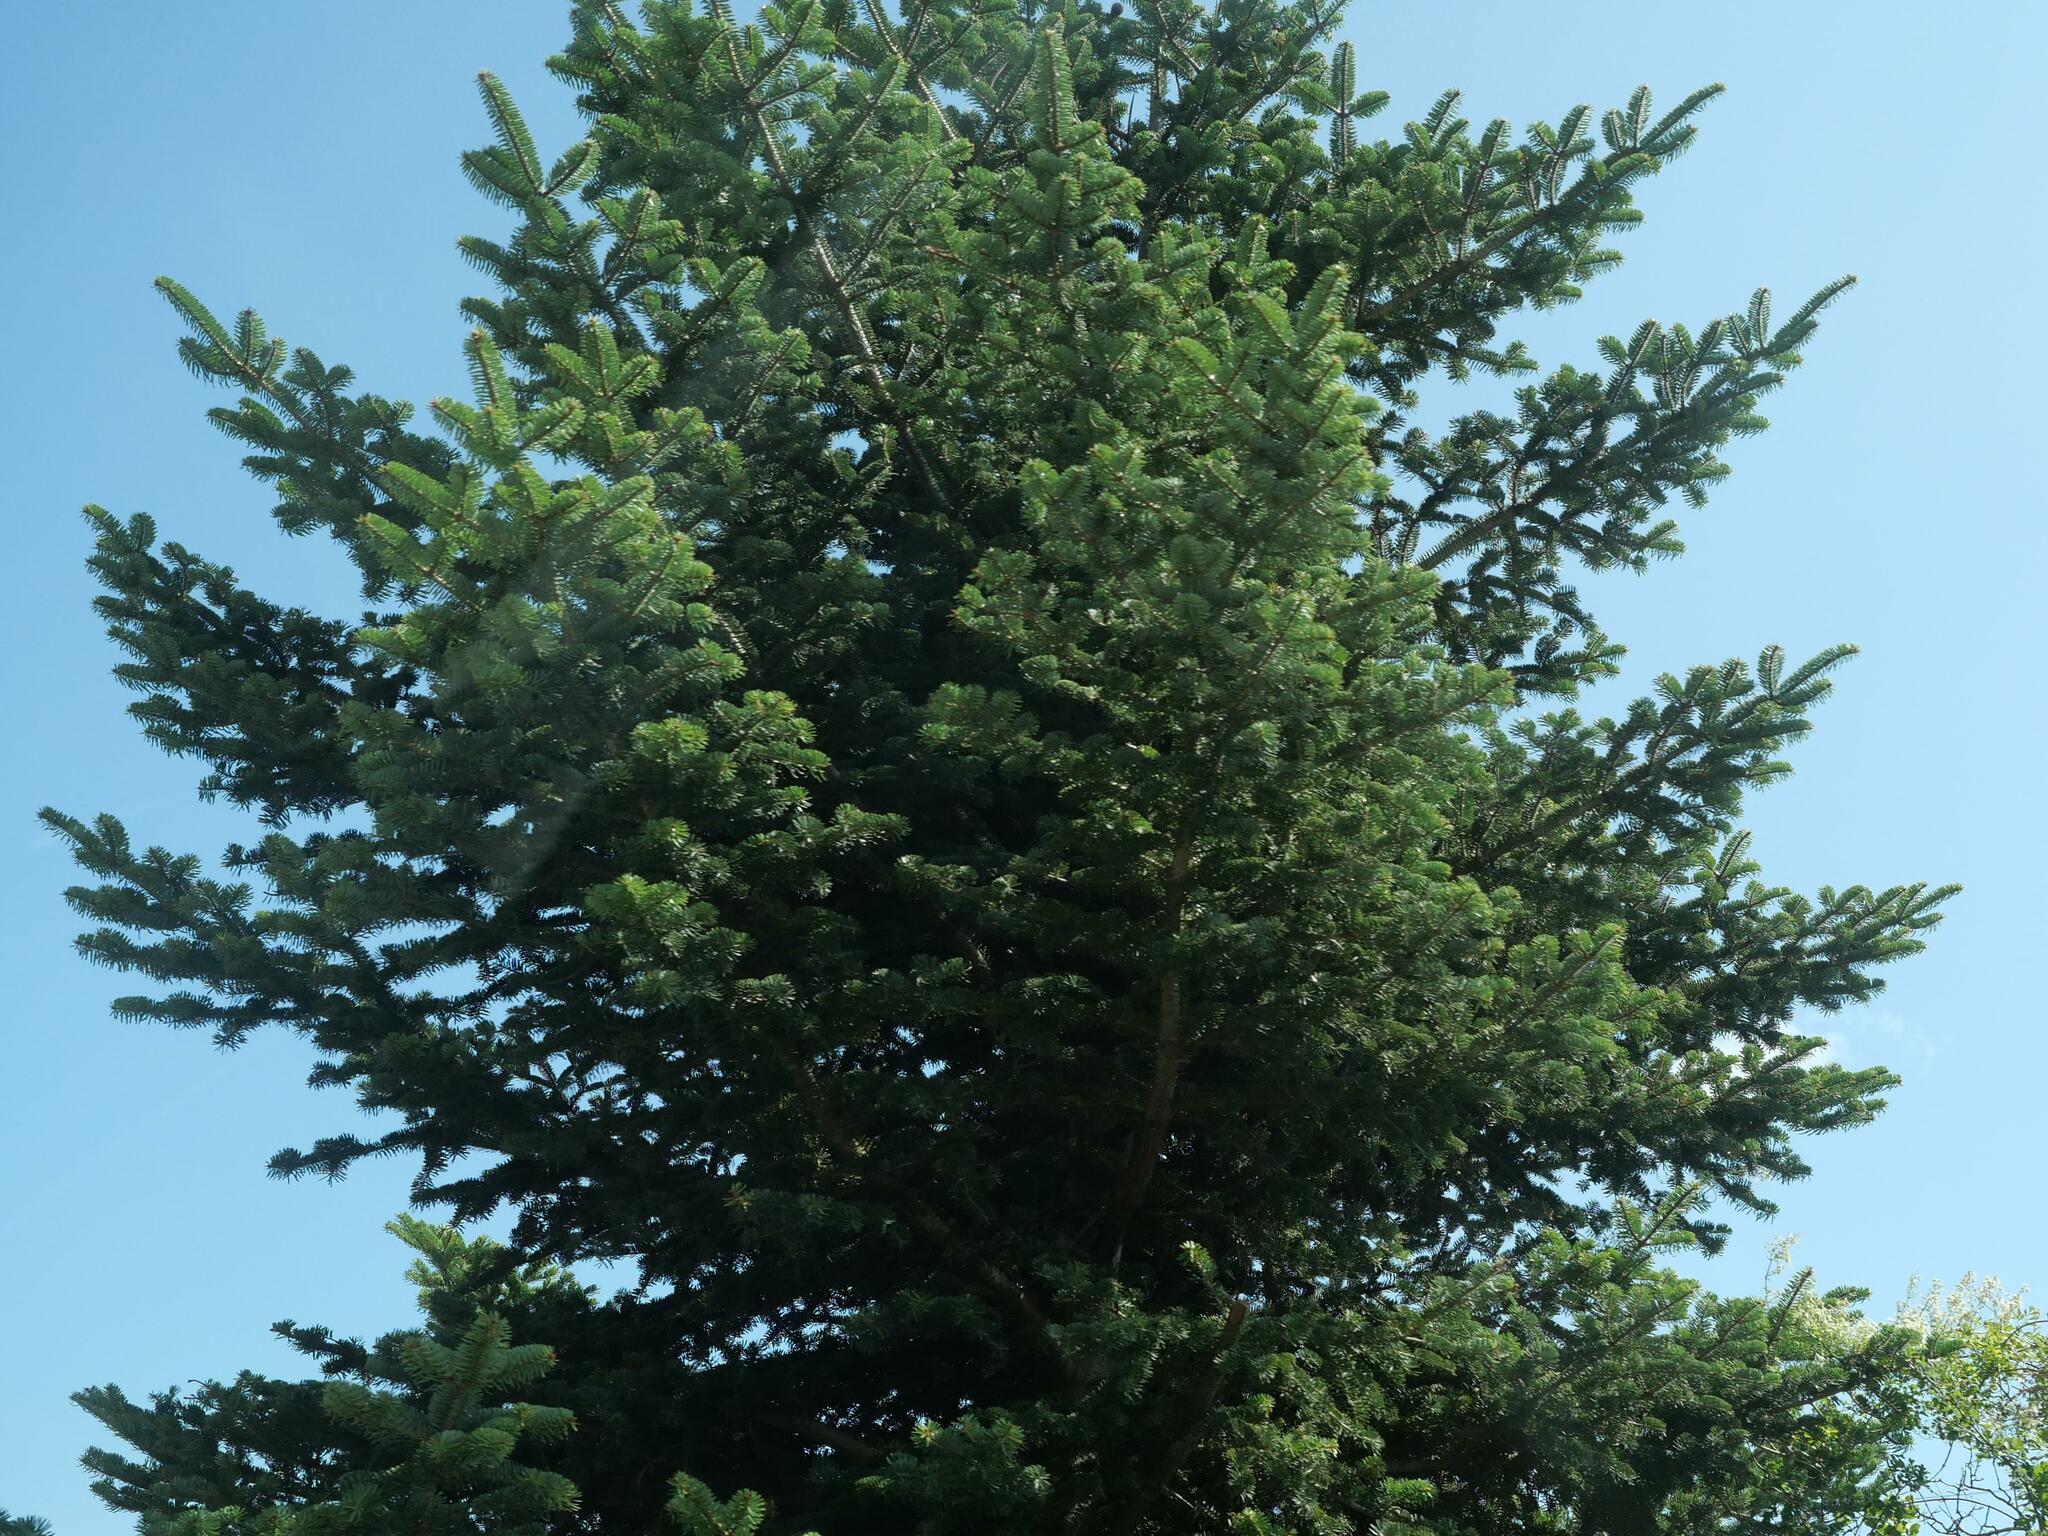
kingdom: Plantae
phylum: Tracheophyta
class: Pinopsida
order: Pinales
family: Pinaceae
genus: Abies
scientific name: Abies cephalonica
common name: Greek fir
